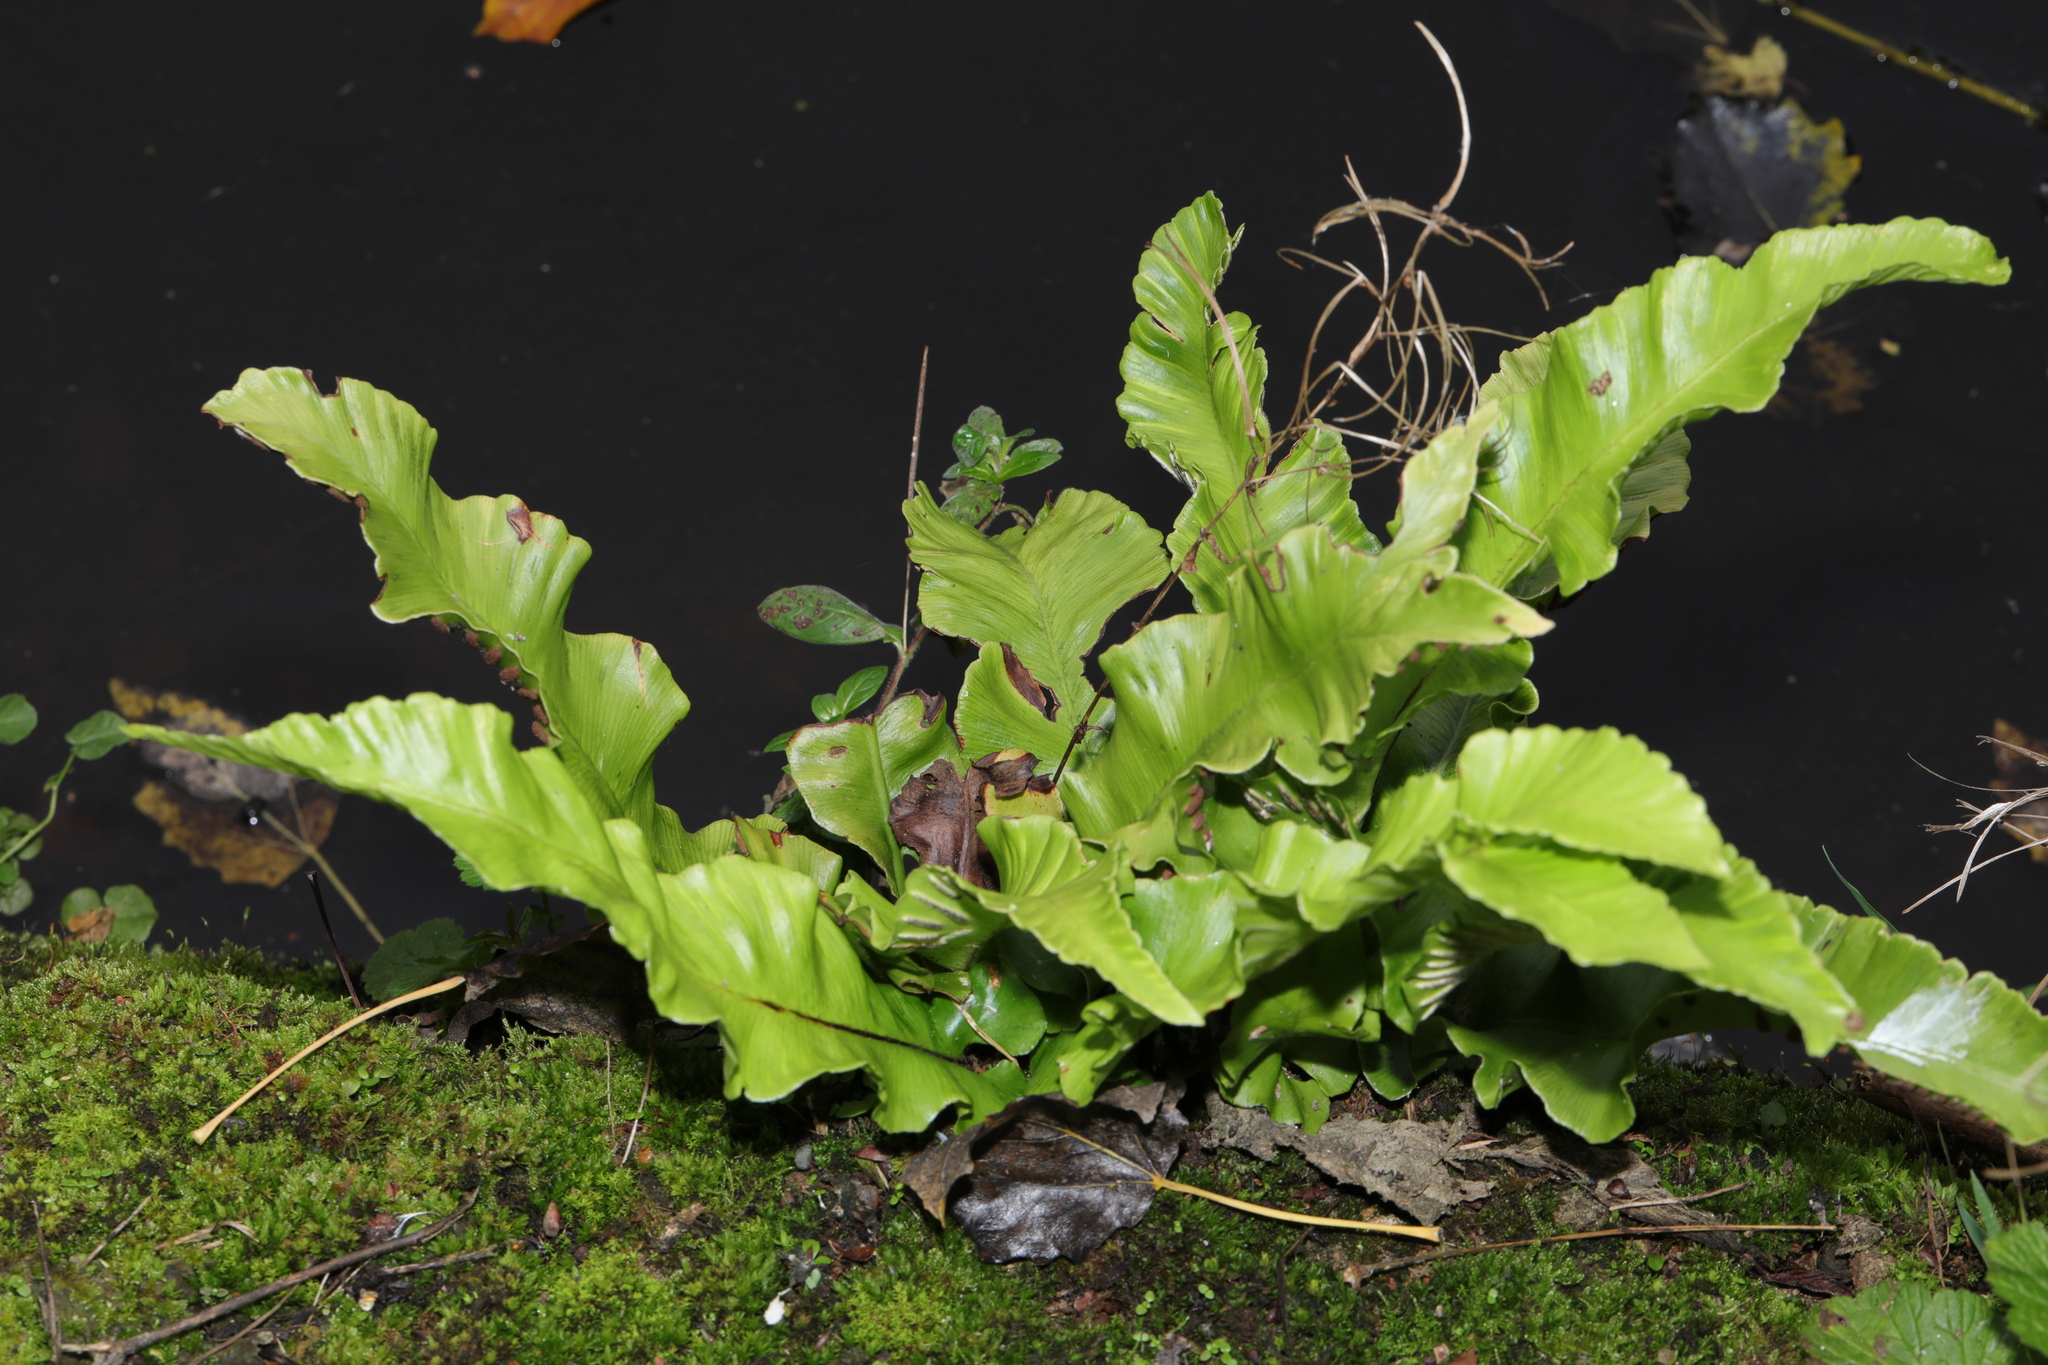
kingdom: Plantae
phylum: Tracheophyta
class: Polypodiopsida
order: Polypodiales
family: Aspleniaceae
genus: Asplenium
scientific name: Asplenium scolopendrium
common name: Hart's-tongue fern
